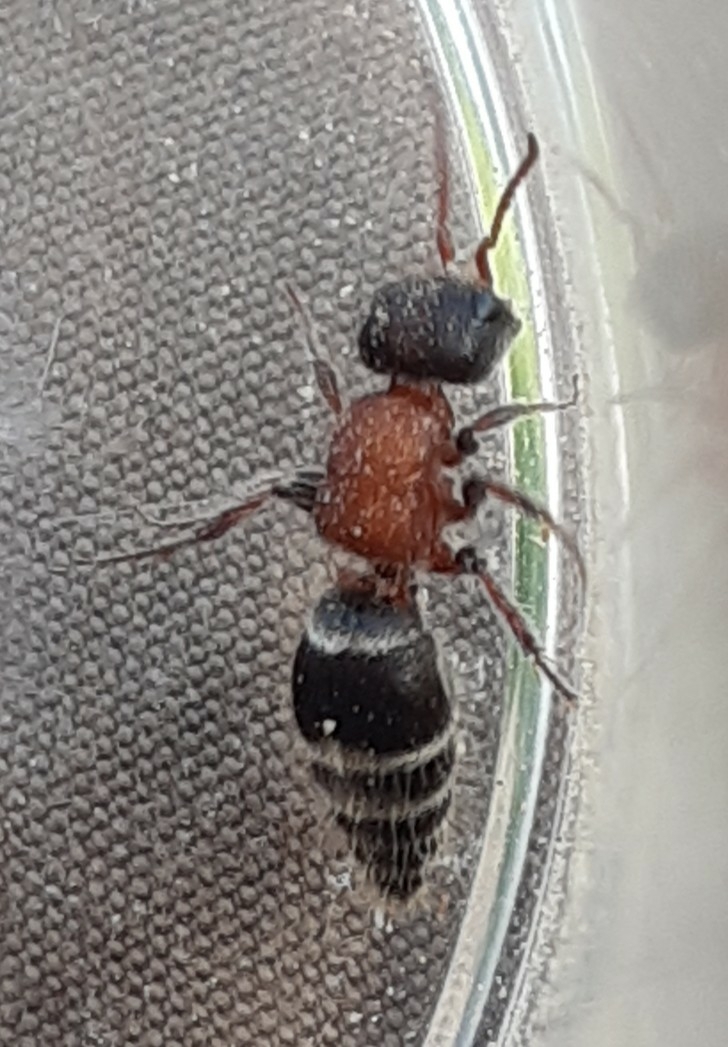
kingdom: Animalia
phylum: Arthropoda
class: Insecta
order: Hymenoptera
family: Mutillidae
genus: Myrmilla
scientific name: Myrmilla calva
